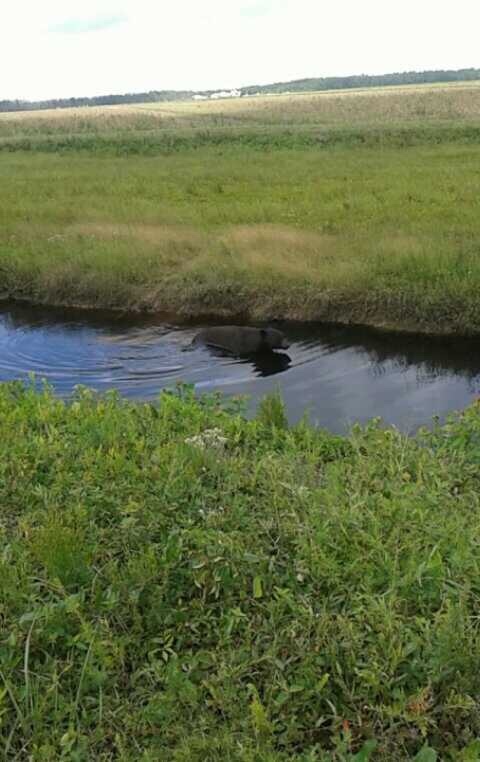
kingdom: Animalia
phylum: Chordata
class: Mammalia
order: Carnivora
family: Ursidae
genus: Ursus
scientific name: Ursus americanus
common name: American black bear
